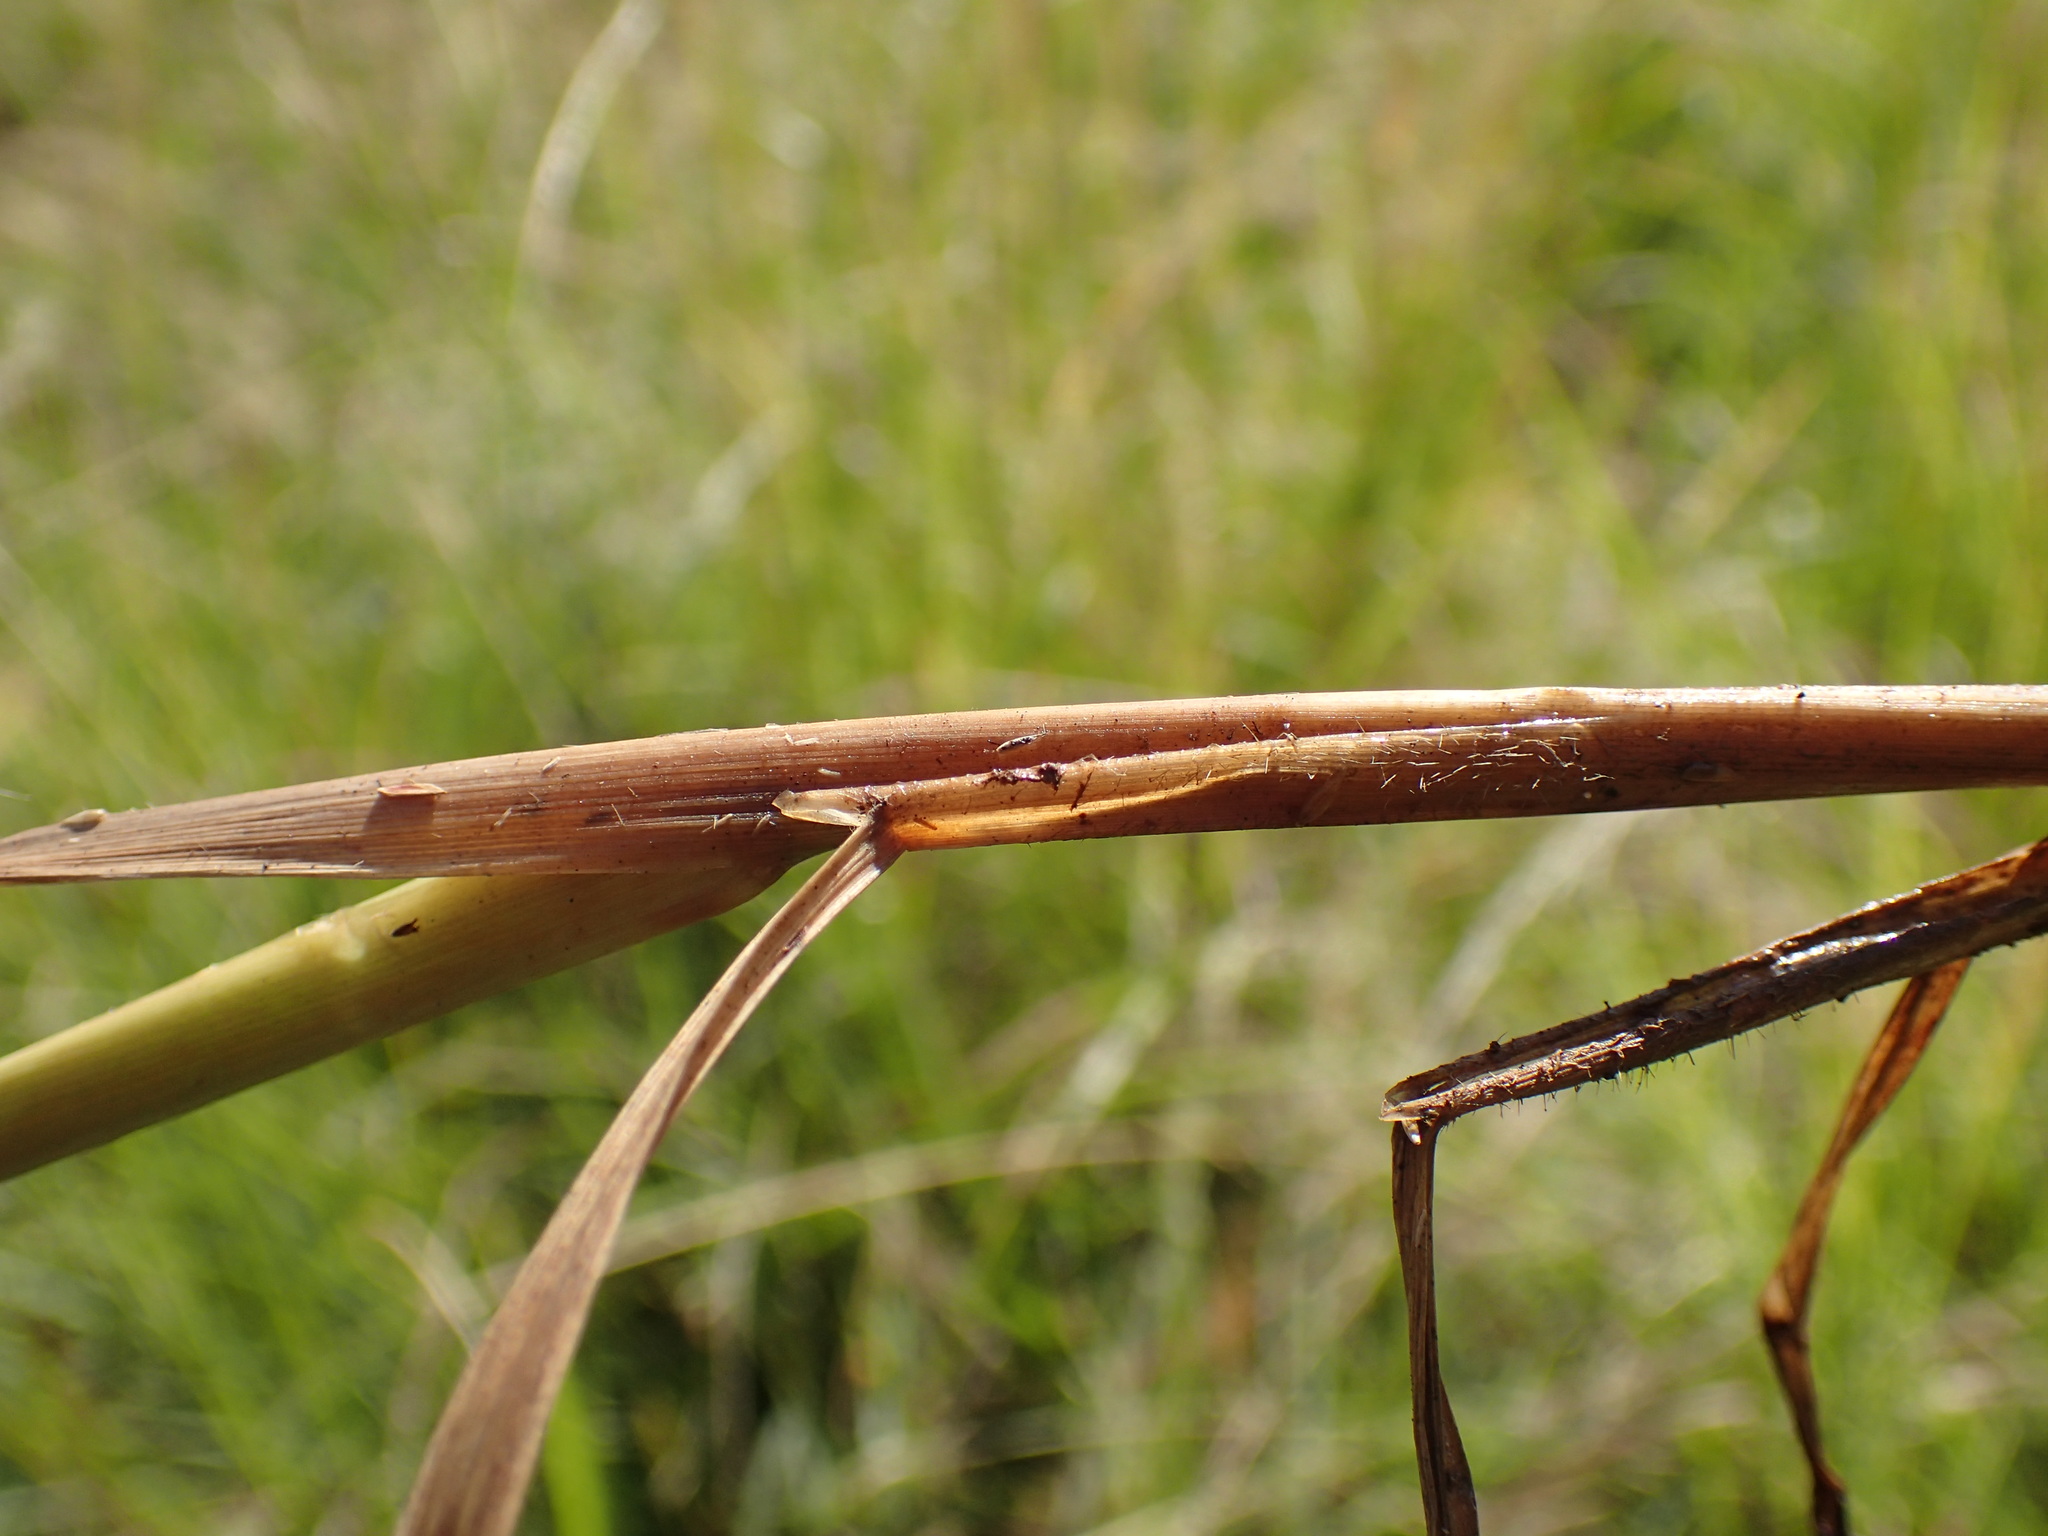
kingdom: Plantae
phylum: Tracheophyta
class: Liliopsida
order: Poales
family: Poaceae
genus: Digitaria
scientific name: Digitaria eriantha
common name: Digitgrass
